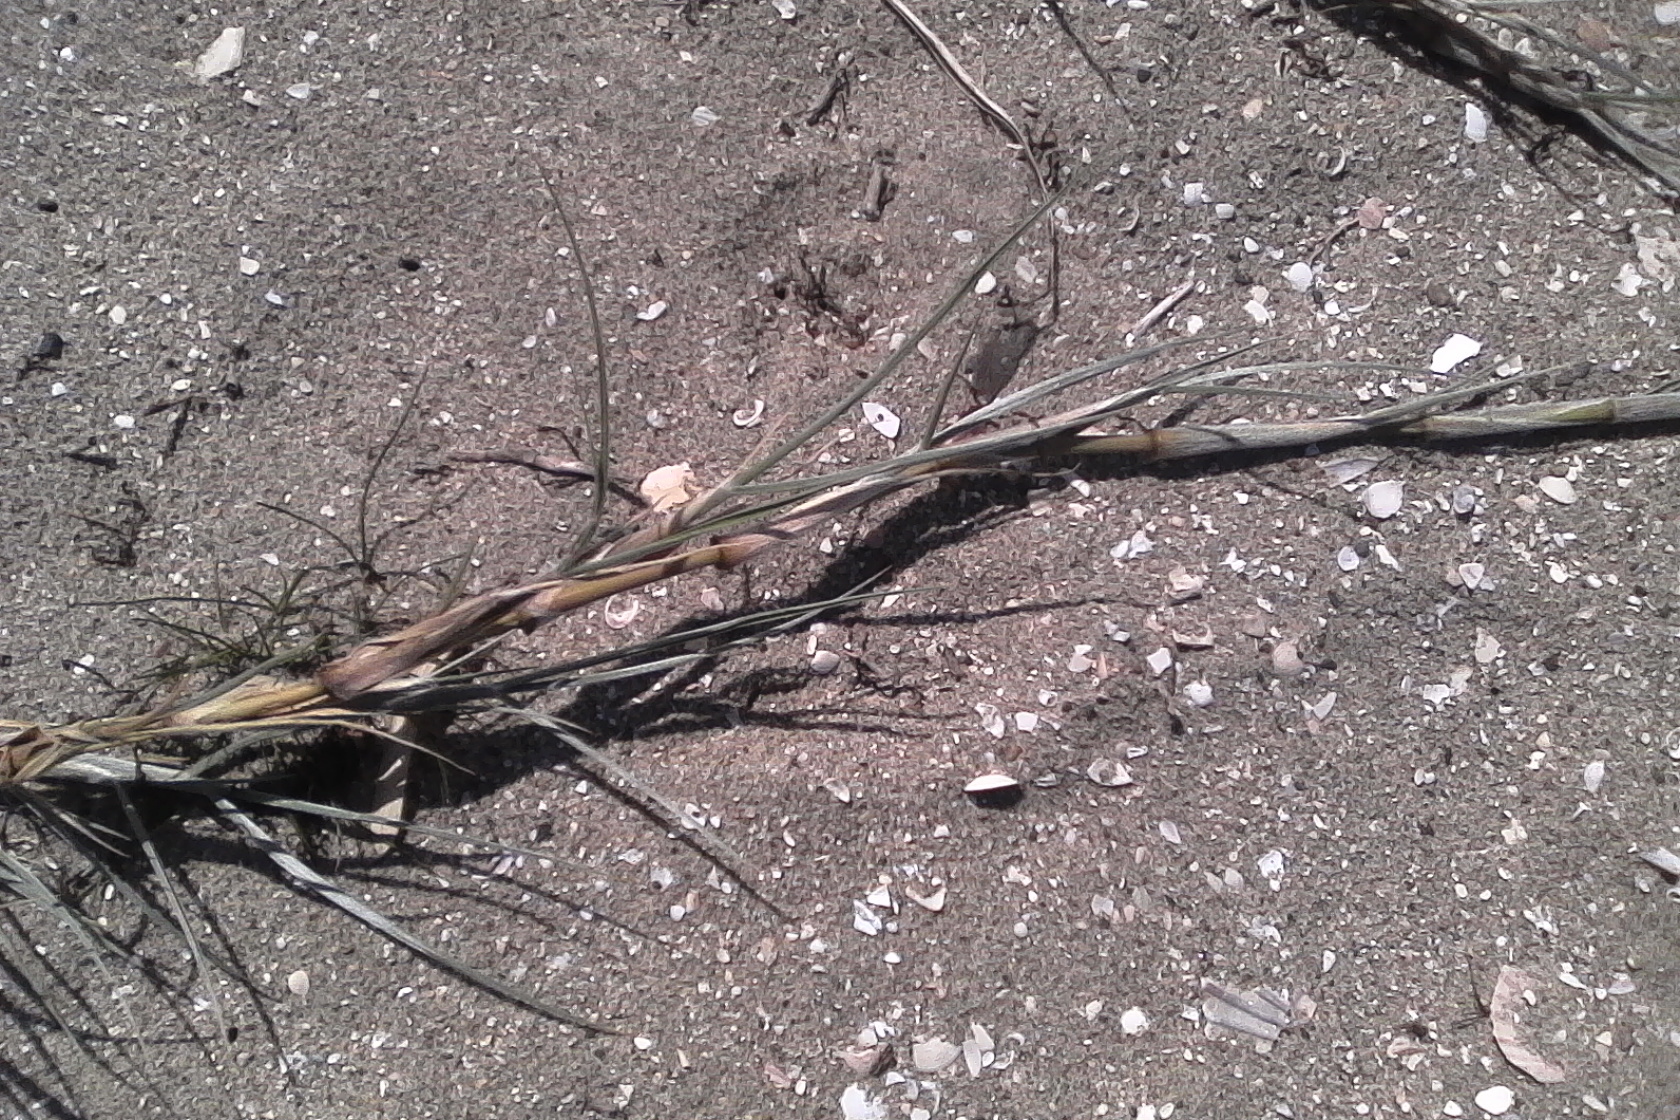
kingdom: Plantae
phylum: Tracheophyta
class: Liliopsida
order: Poales
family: Poaceae
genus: Spinifex
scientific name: Spinifex sericeus
